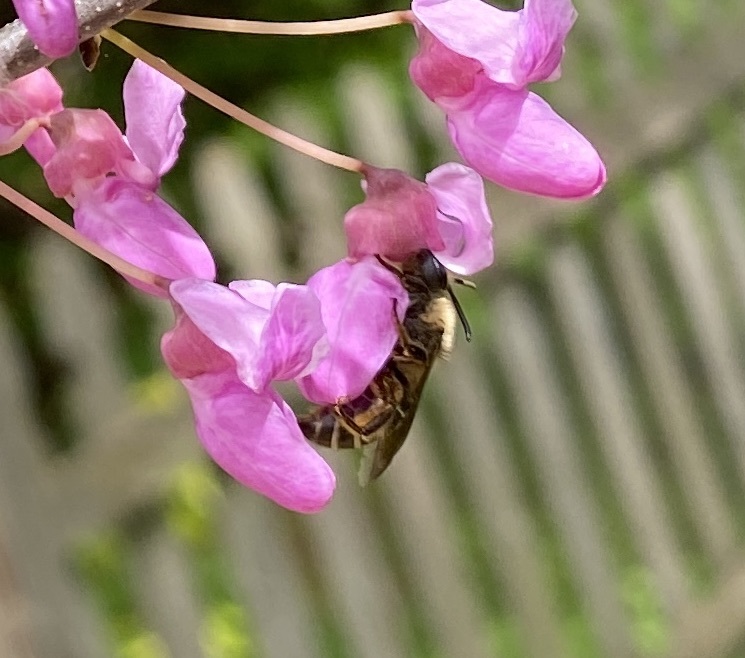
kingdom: Animalia
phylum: Arthropoda
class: Insecta
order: Hymenoptera
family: Colletidae
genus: Colletes
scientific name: Colletes inaequalis
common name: Unequal cellophane bee
